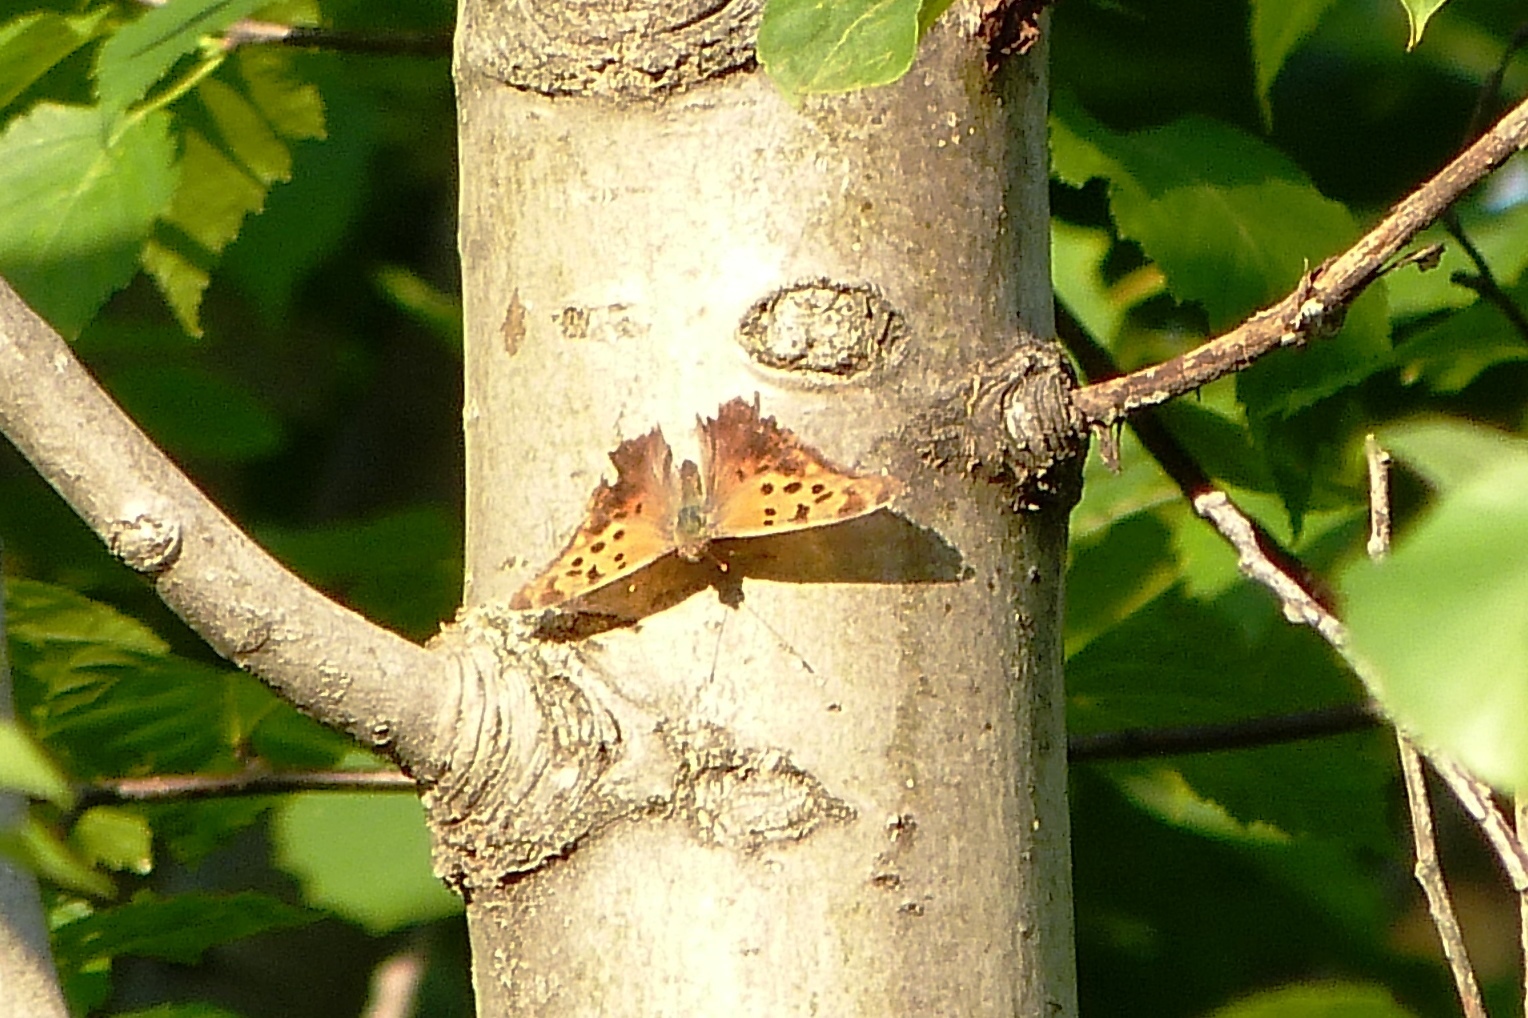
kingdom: Animalia
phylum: Arthropoda
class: Insecta
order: Lepidoptera
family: Nymphalidae
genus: Polygonia
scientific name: Polygonia interrogationis
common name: Question mark
